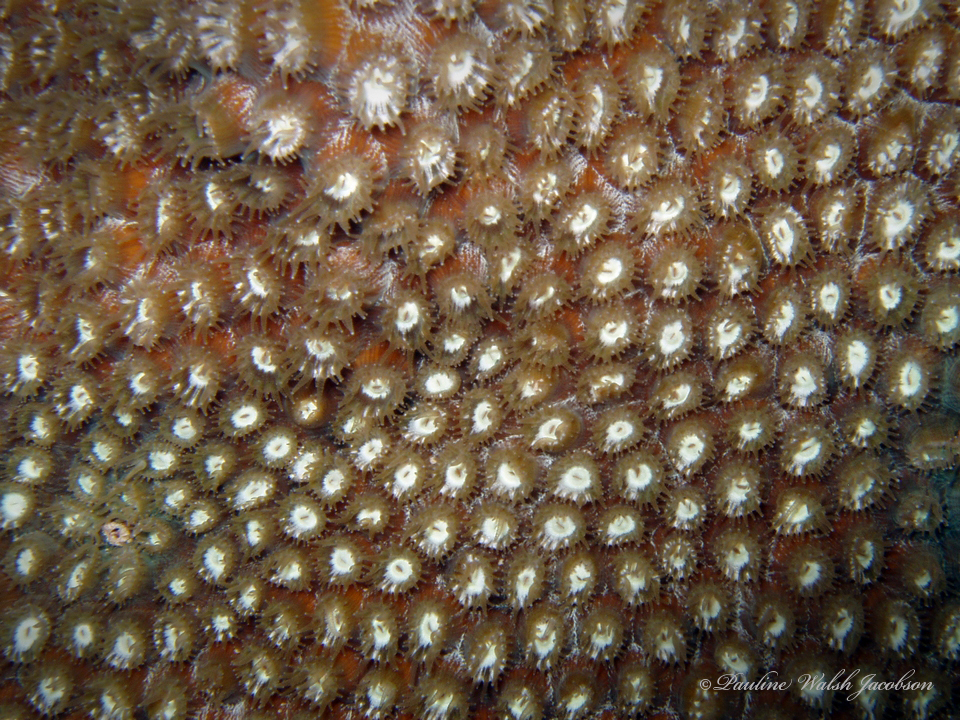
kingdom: Animalia
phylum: Cnidaria
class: Anthozoa
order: Scleractinia
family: Montastraeidae
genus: Montastraea
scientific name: Montastraea cavernosa
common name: Great star coral
